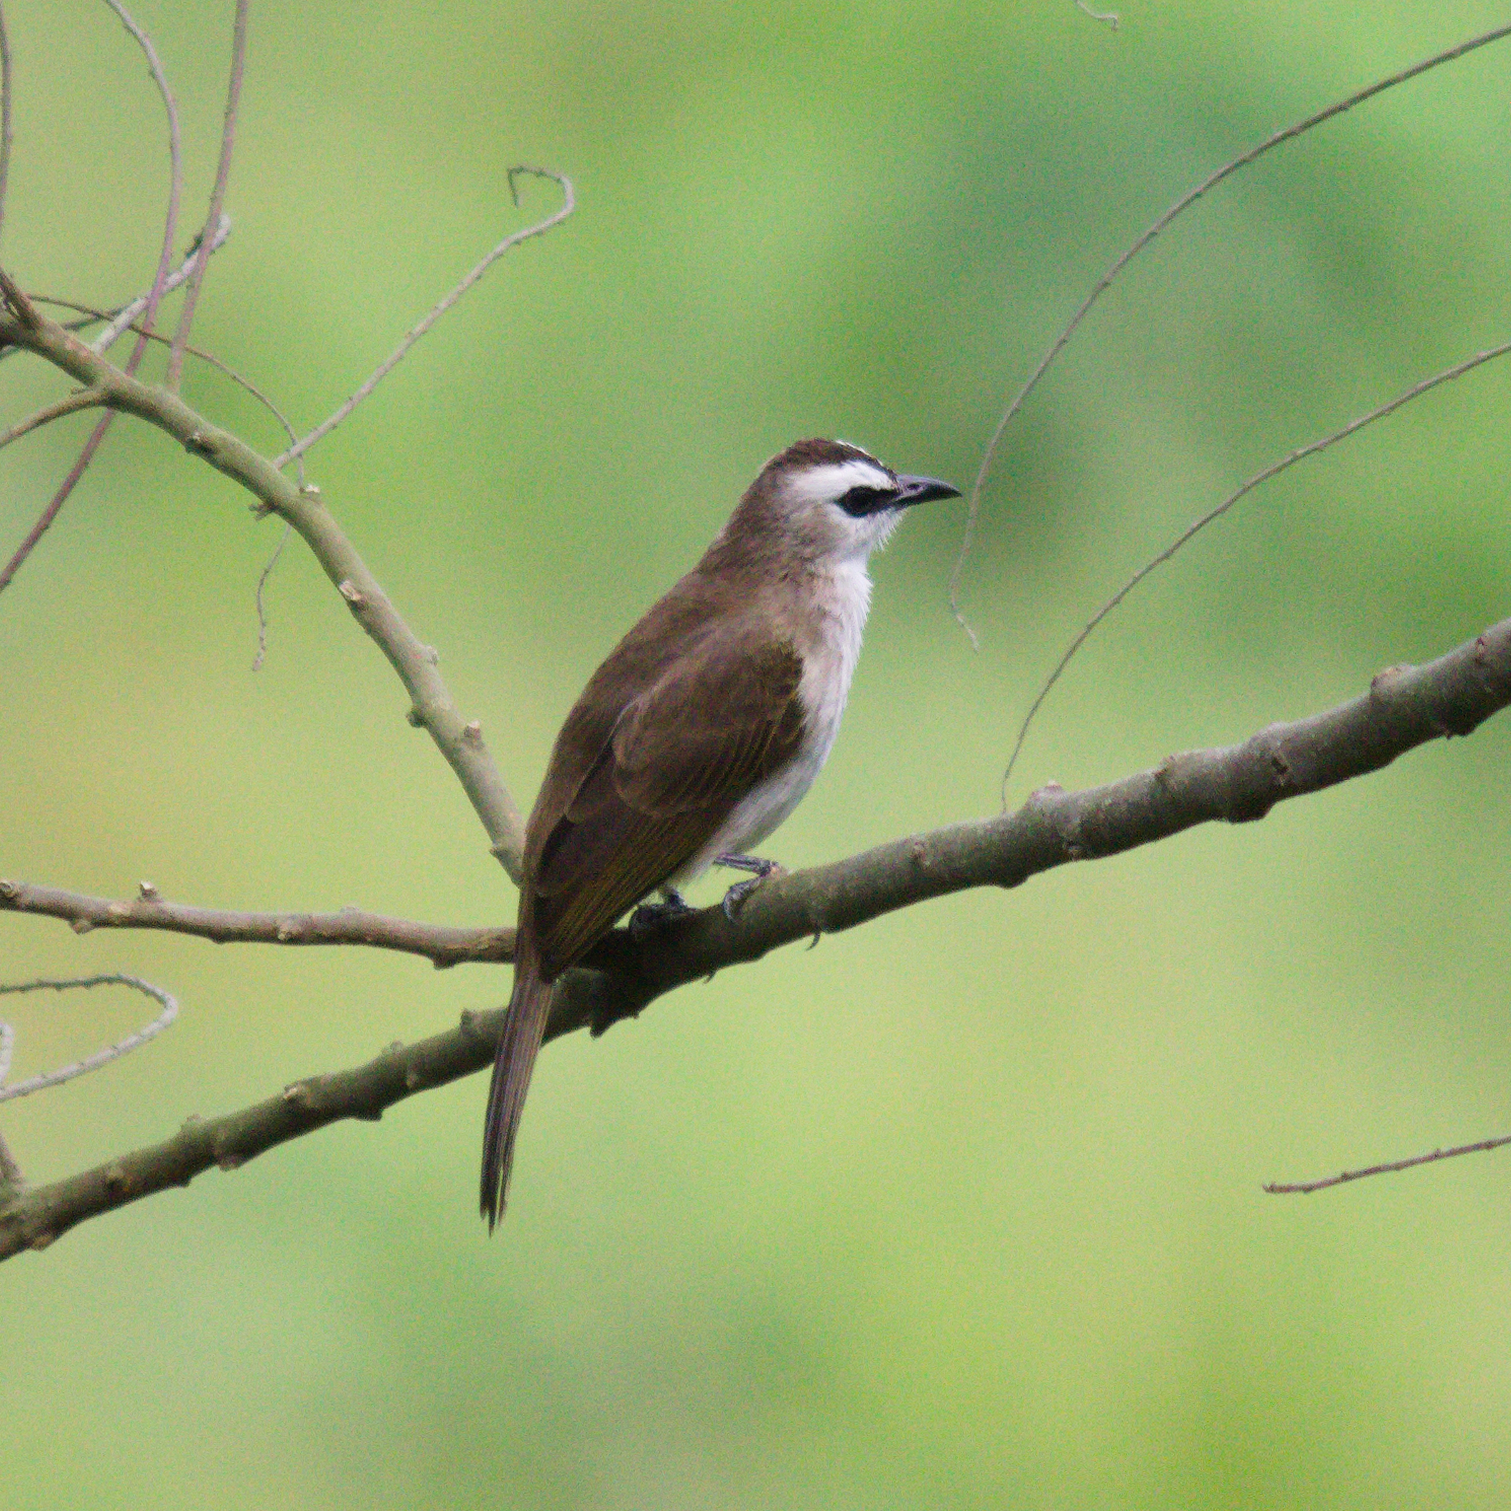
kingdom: Animalia
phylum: Chordata
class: Aves
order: Passeriformes
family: Pycnonotidae
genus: Pycnonotus
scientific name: Pycnonotus goiavier
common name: Yellow-vented bulbul
